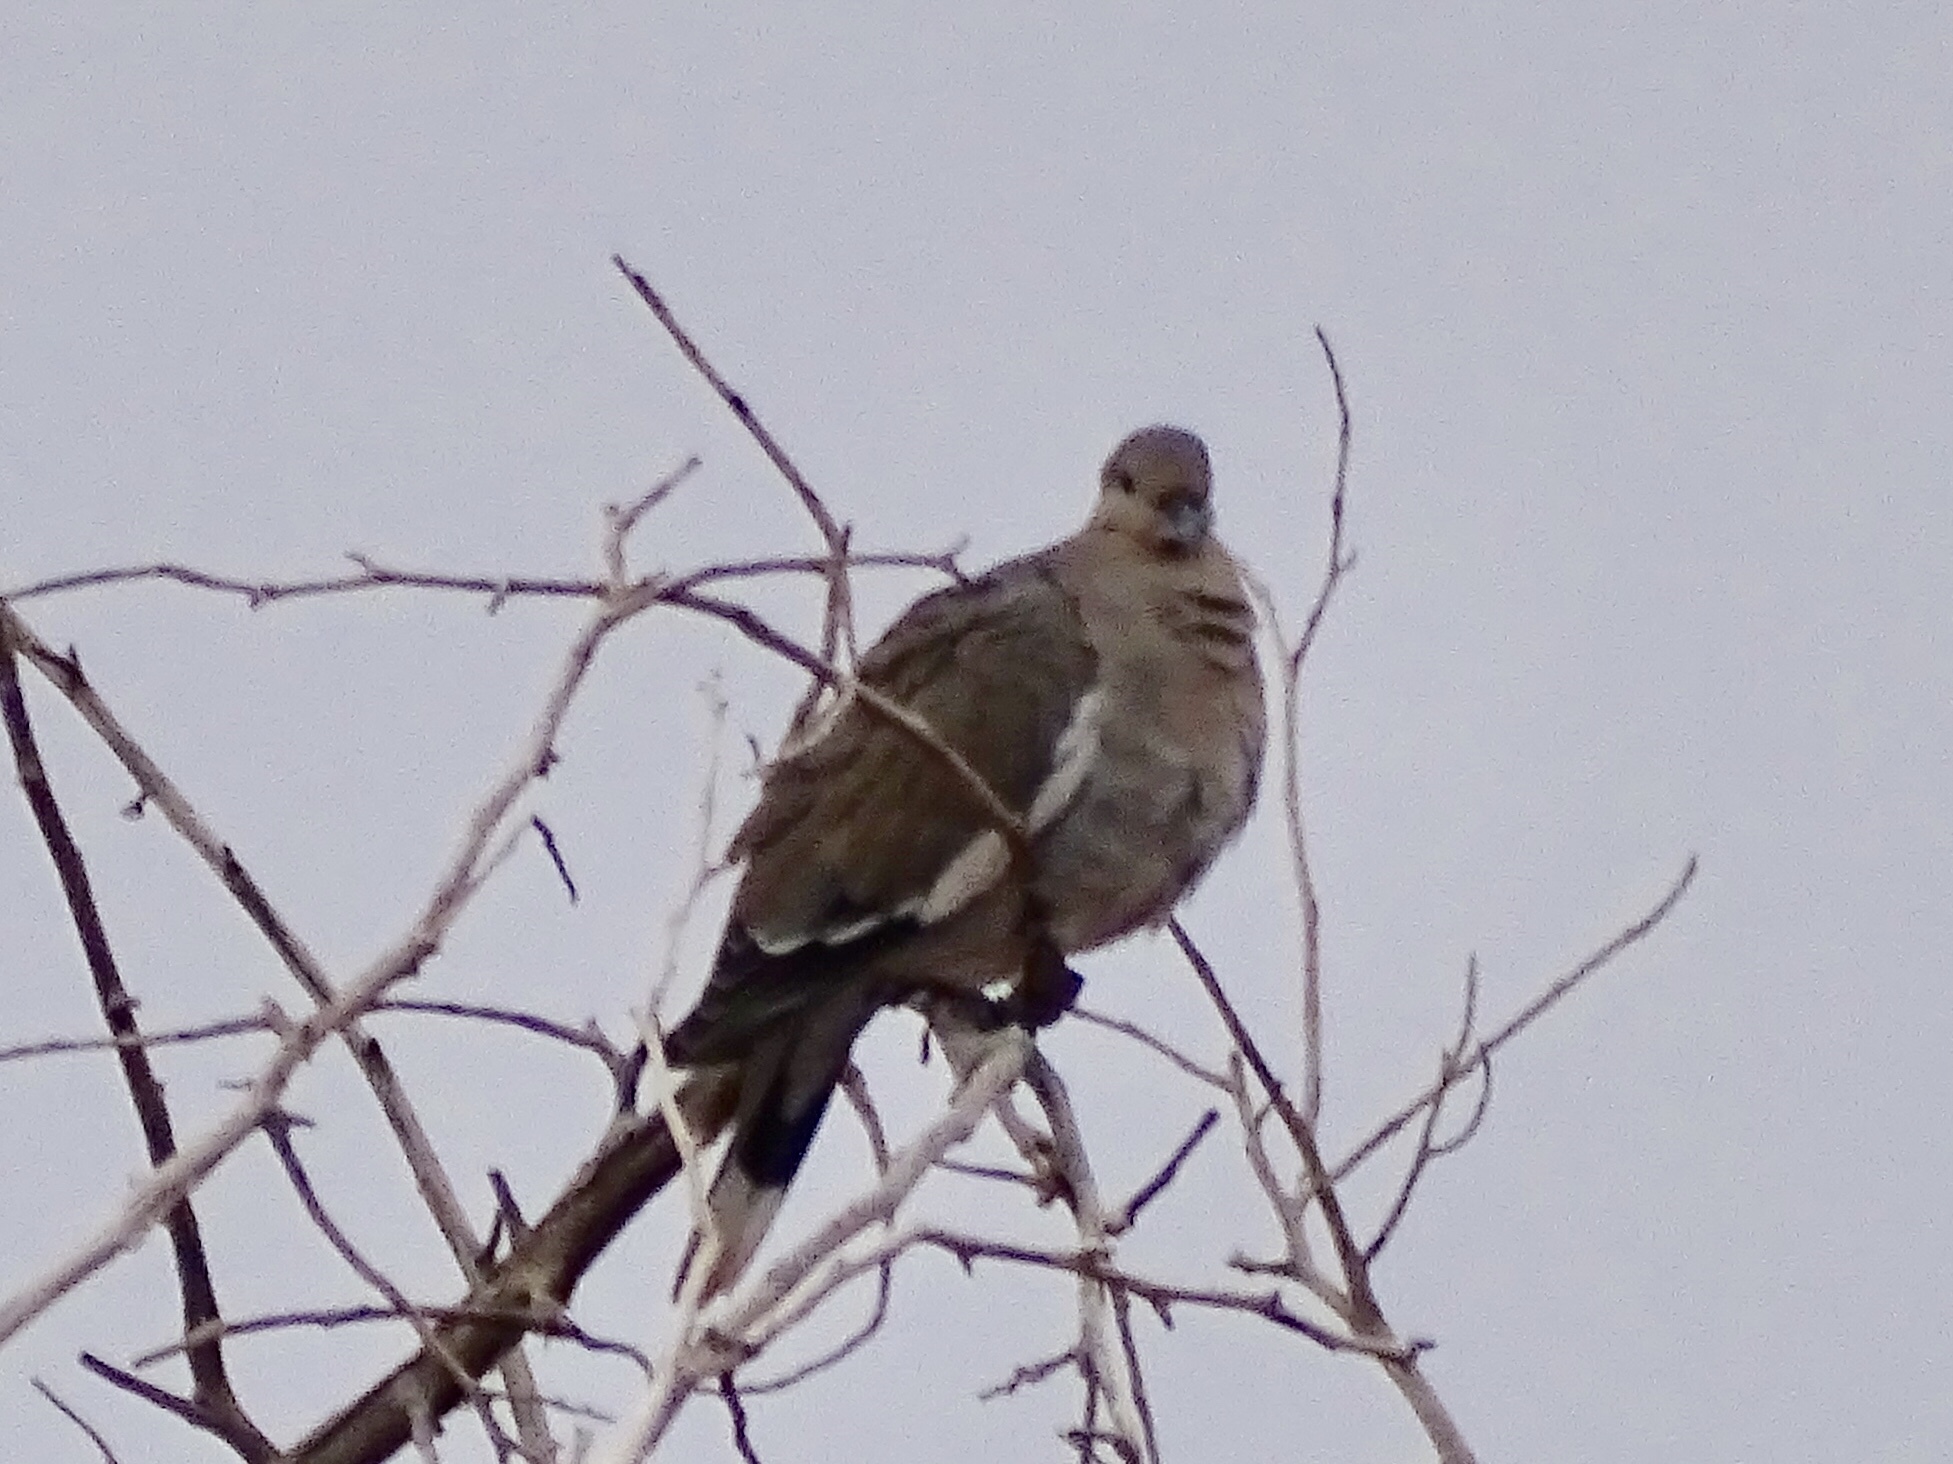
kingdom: Animalia
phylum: Chordata
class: Aves
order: Columbiformes
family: Columbidae
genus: Zenaida
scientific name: Zenaida asiatica
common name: White-winged dove
